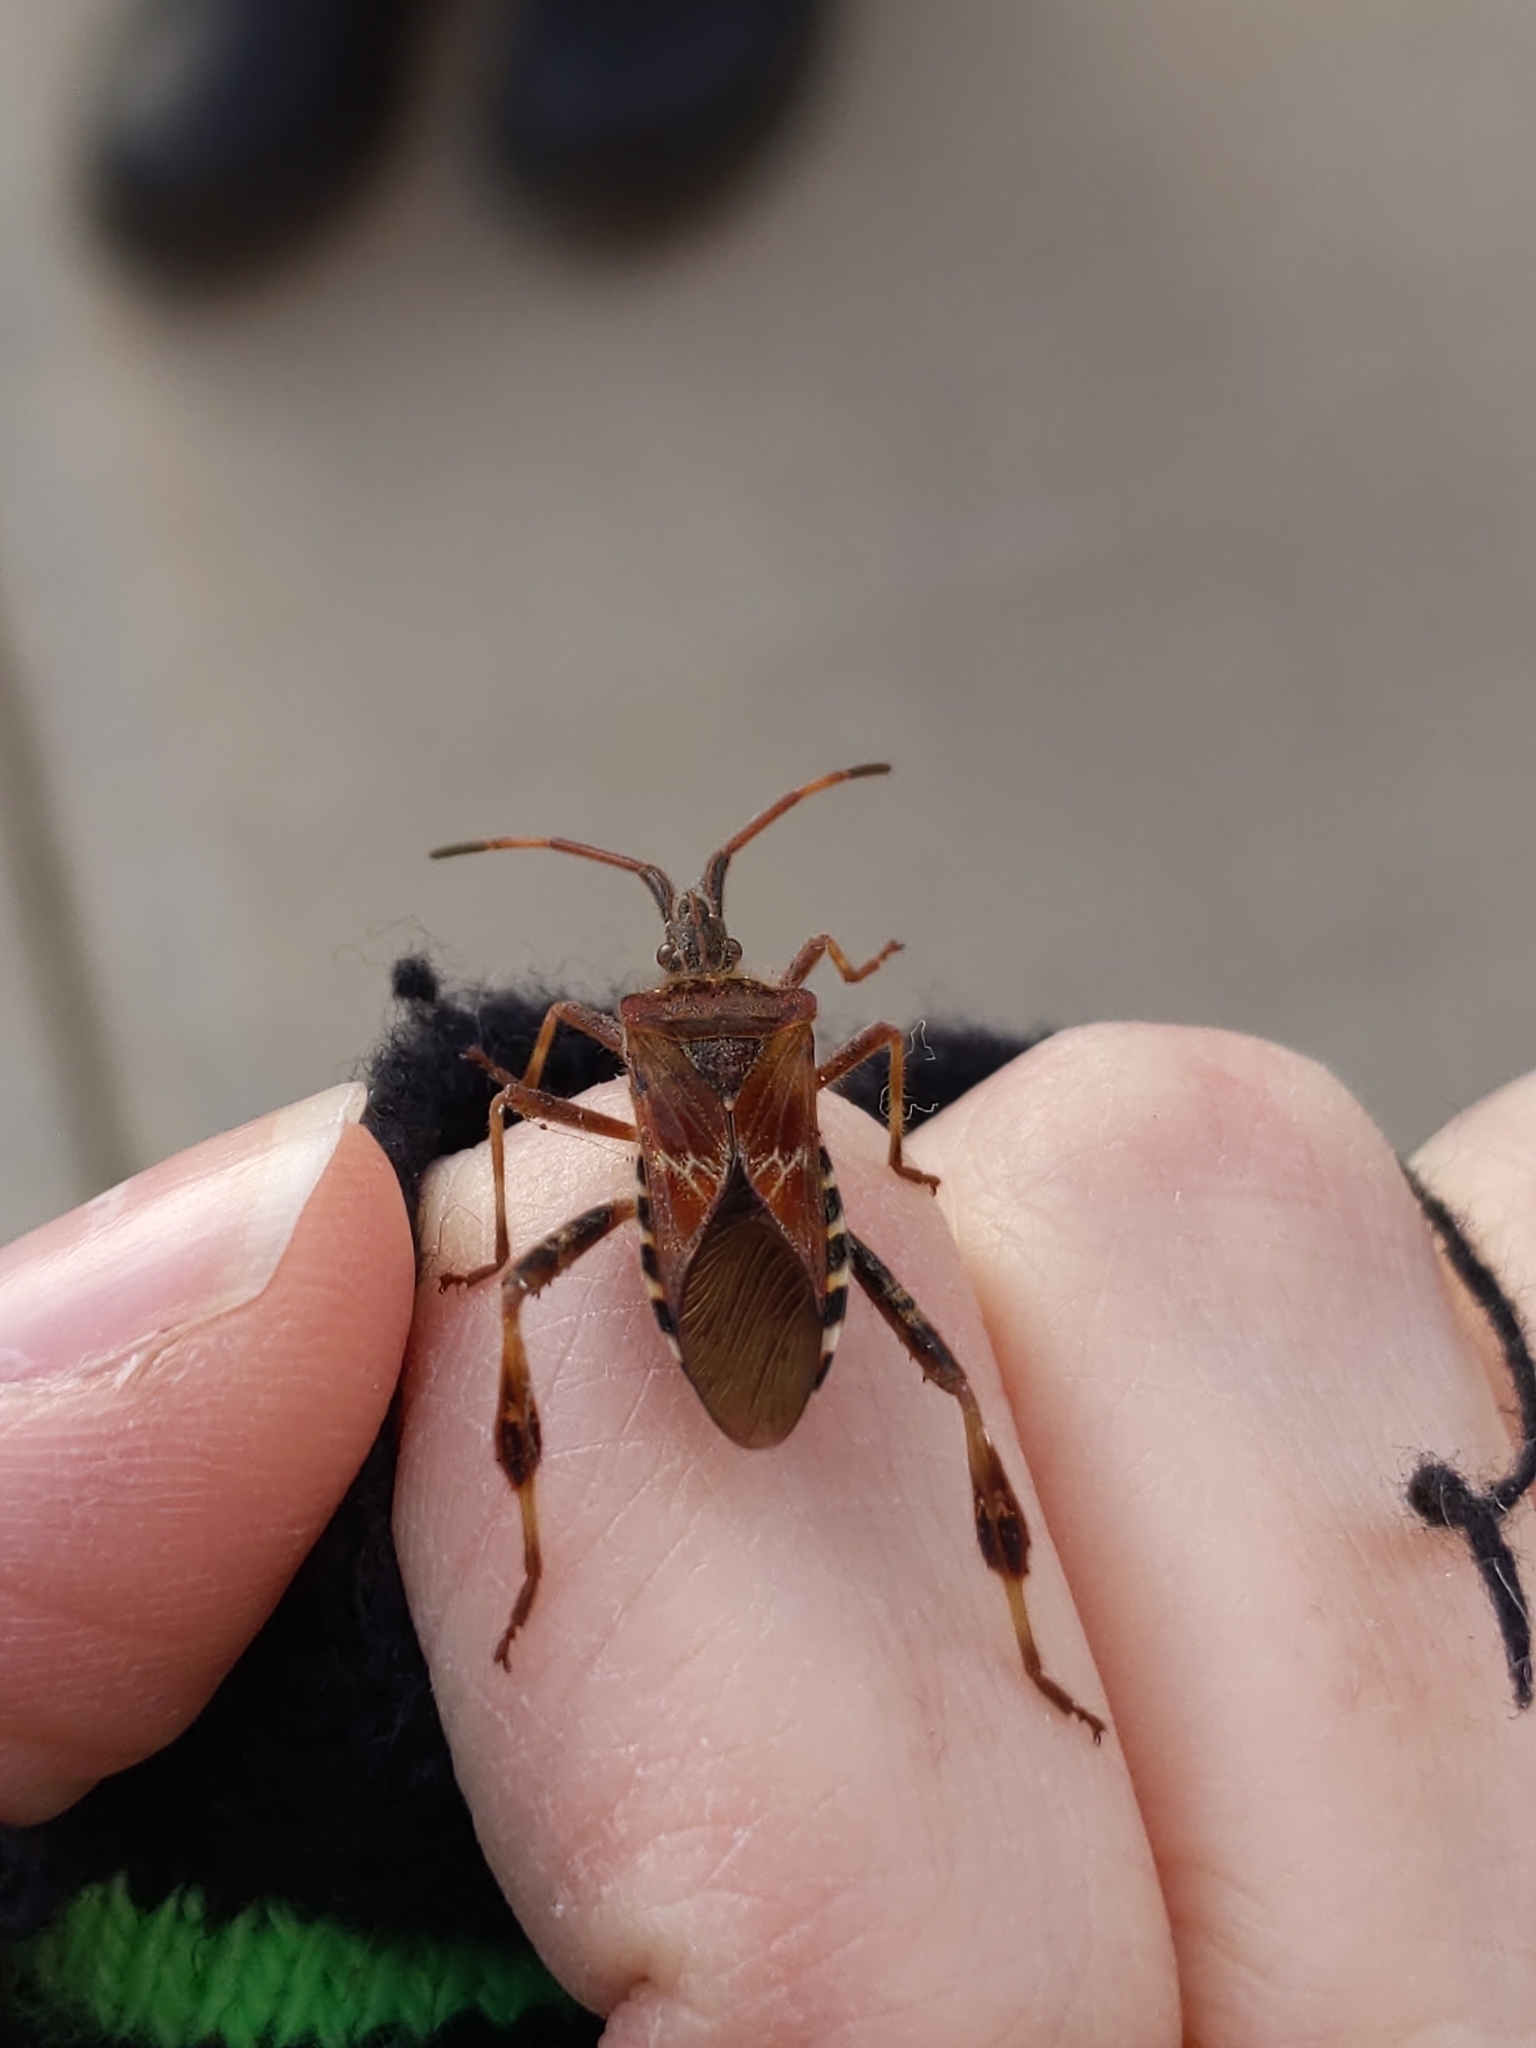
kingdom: Animalia
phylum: Arthropoda
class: Insecta
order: Hemiptera
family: Coreidae
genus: Leptoglossus
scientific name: Leptoglossus occidentalis
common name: Western conifer-seed bug
